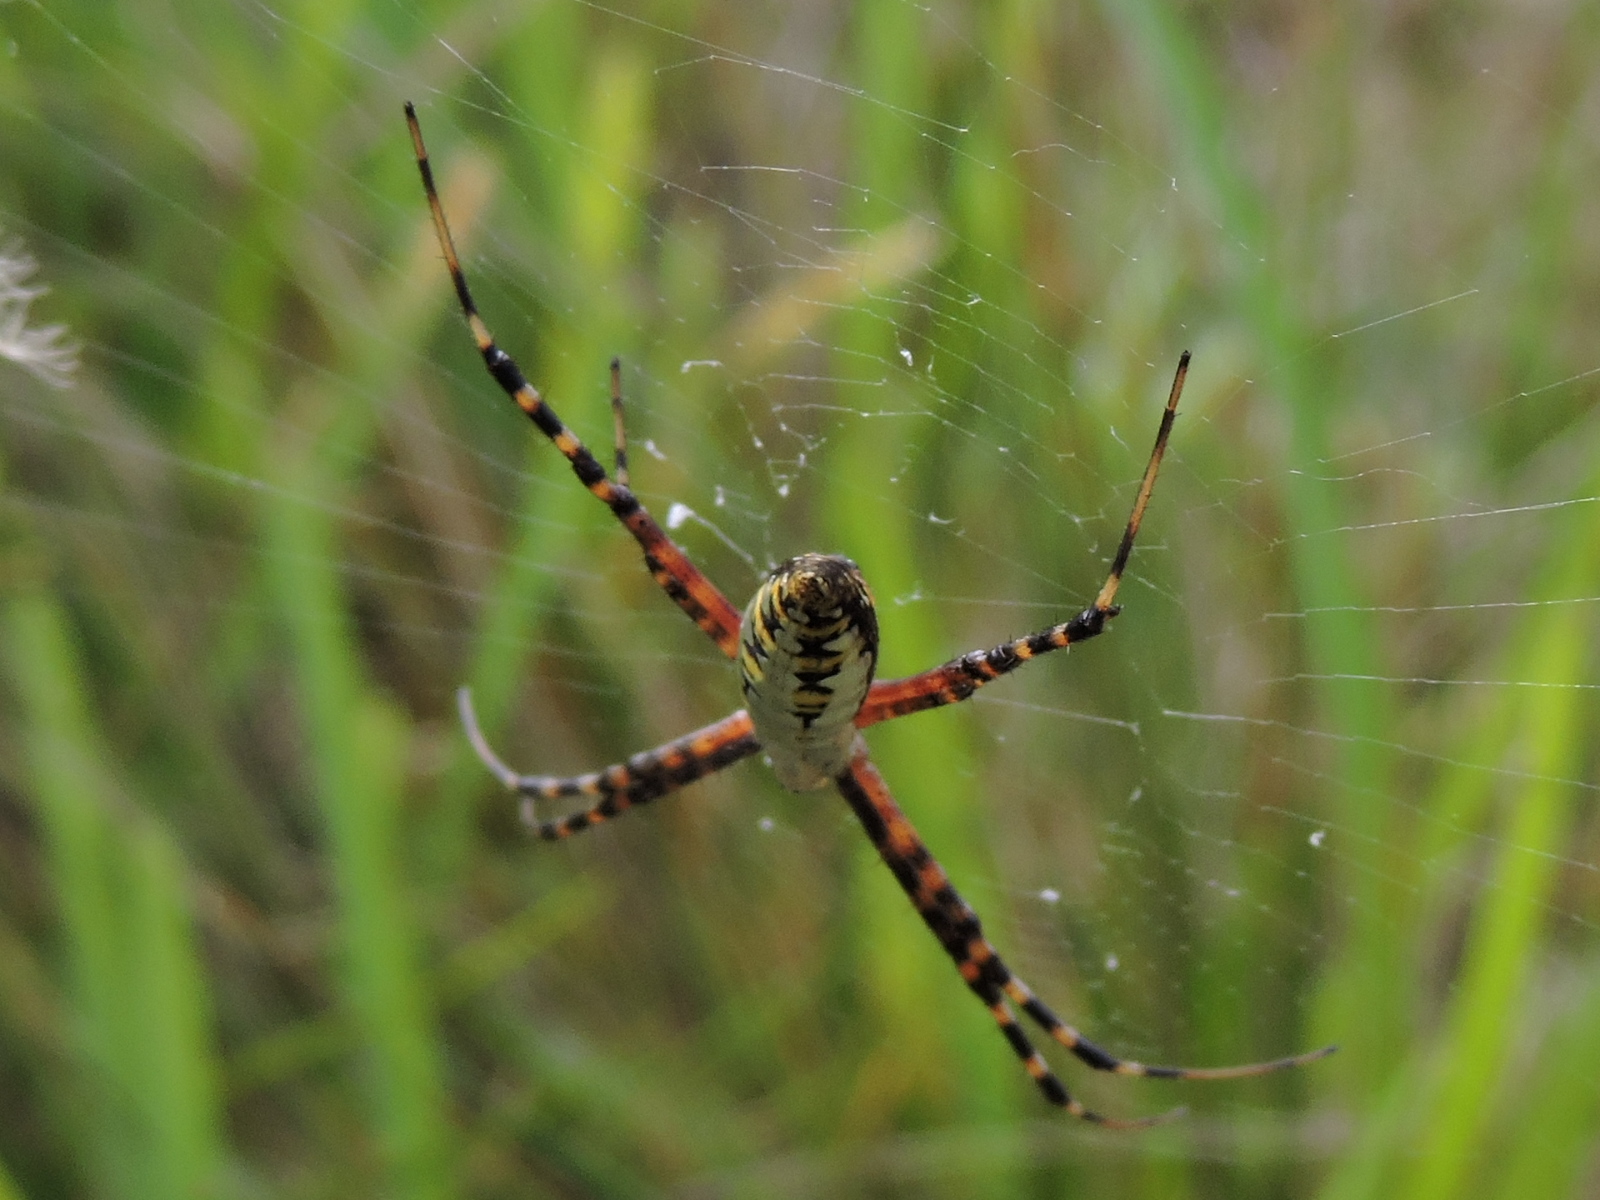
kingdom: Animalia
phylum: Arthropoda
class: Arachnida
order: Araneae
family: Araneidae
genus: Argiope
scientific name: Argiope trifasciata
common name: Banded garden spider
